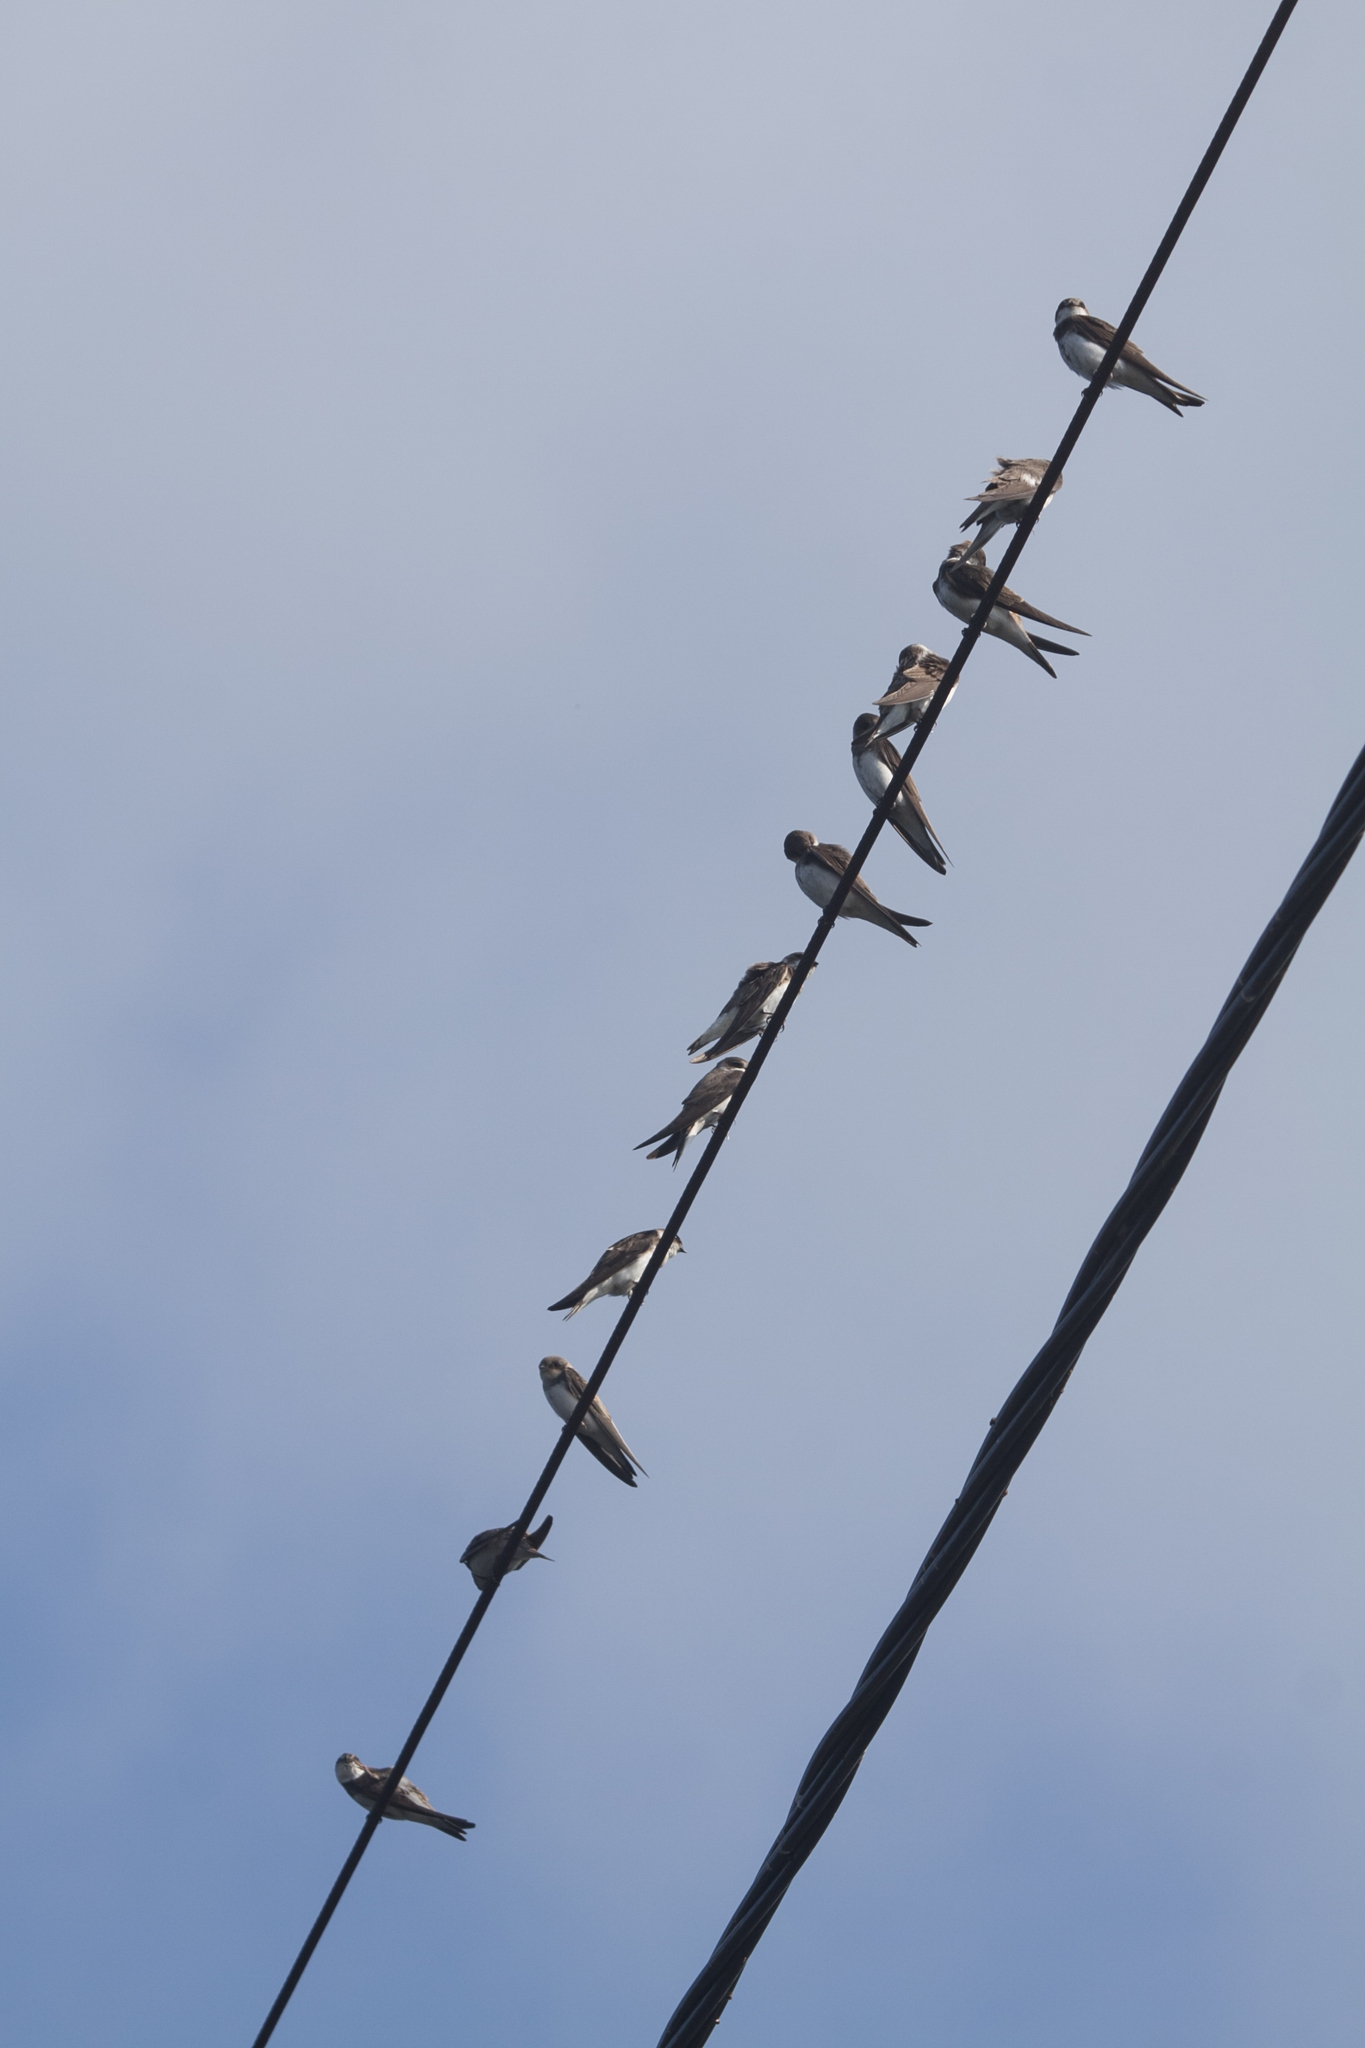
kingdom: Animalia
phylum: Chordata
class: Aves
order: Passeriformes
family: Hirundinidae
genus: Riparia
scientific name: Riparia riparia
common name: Sand martin
